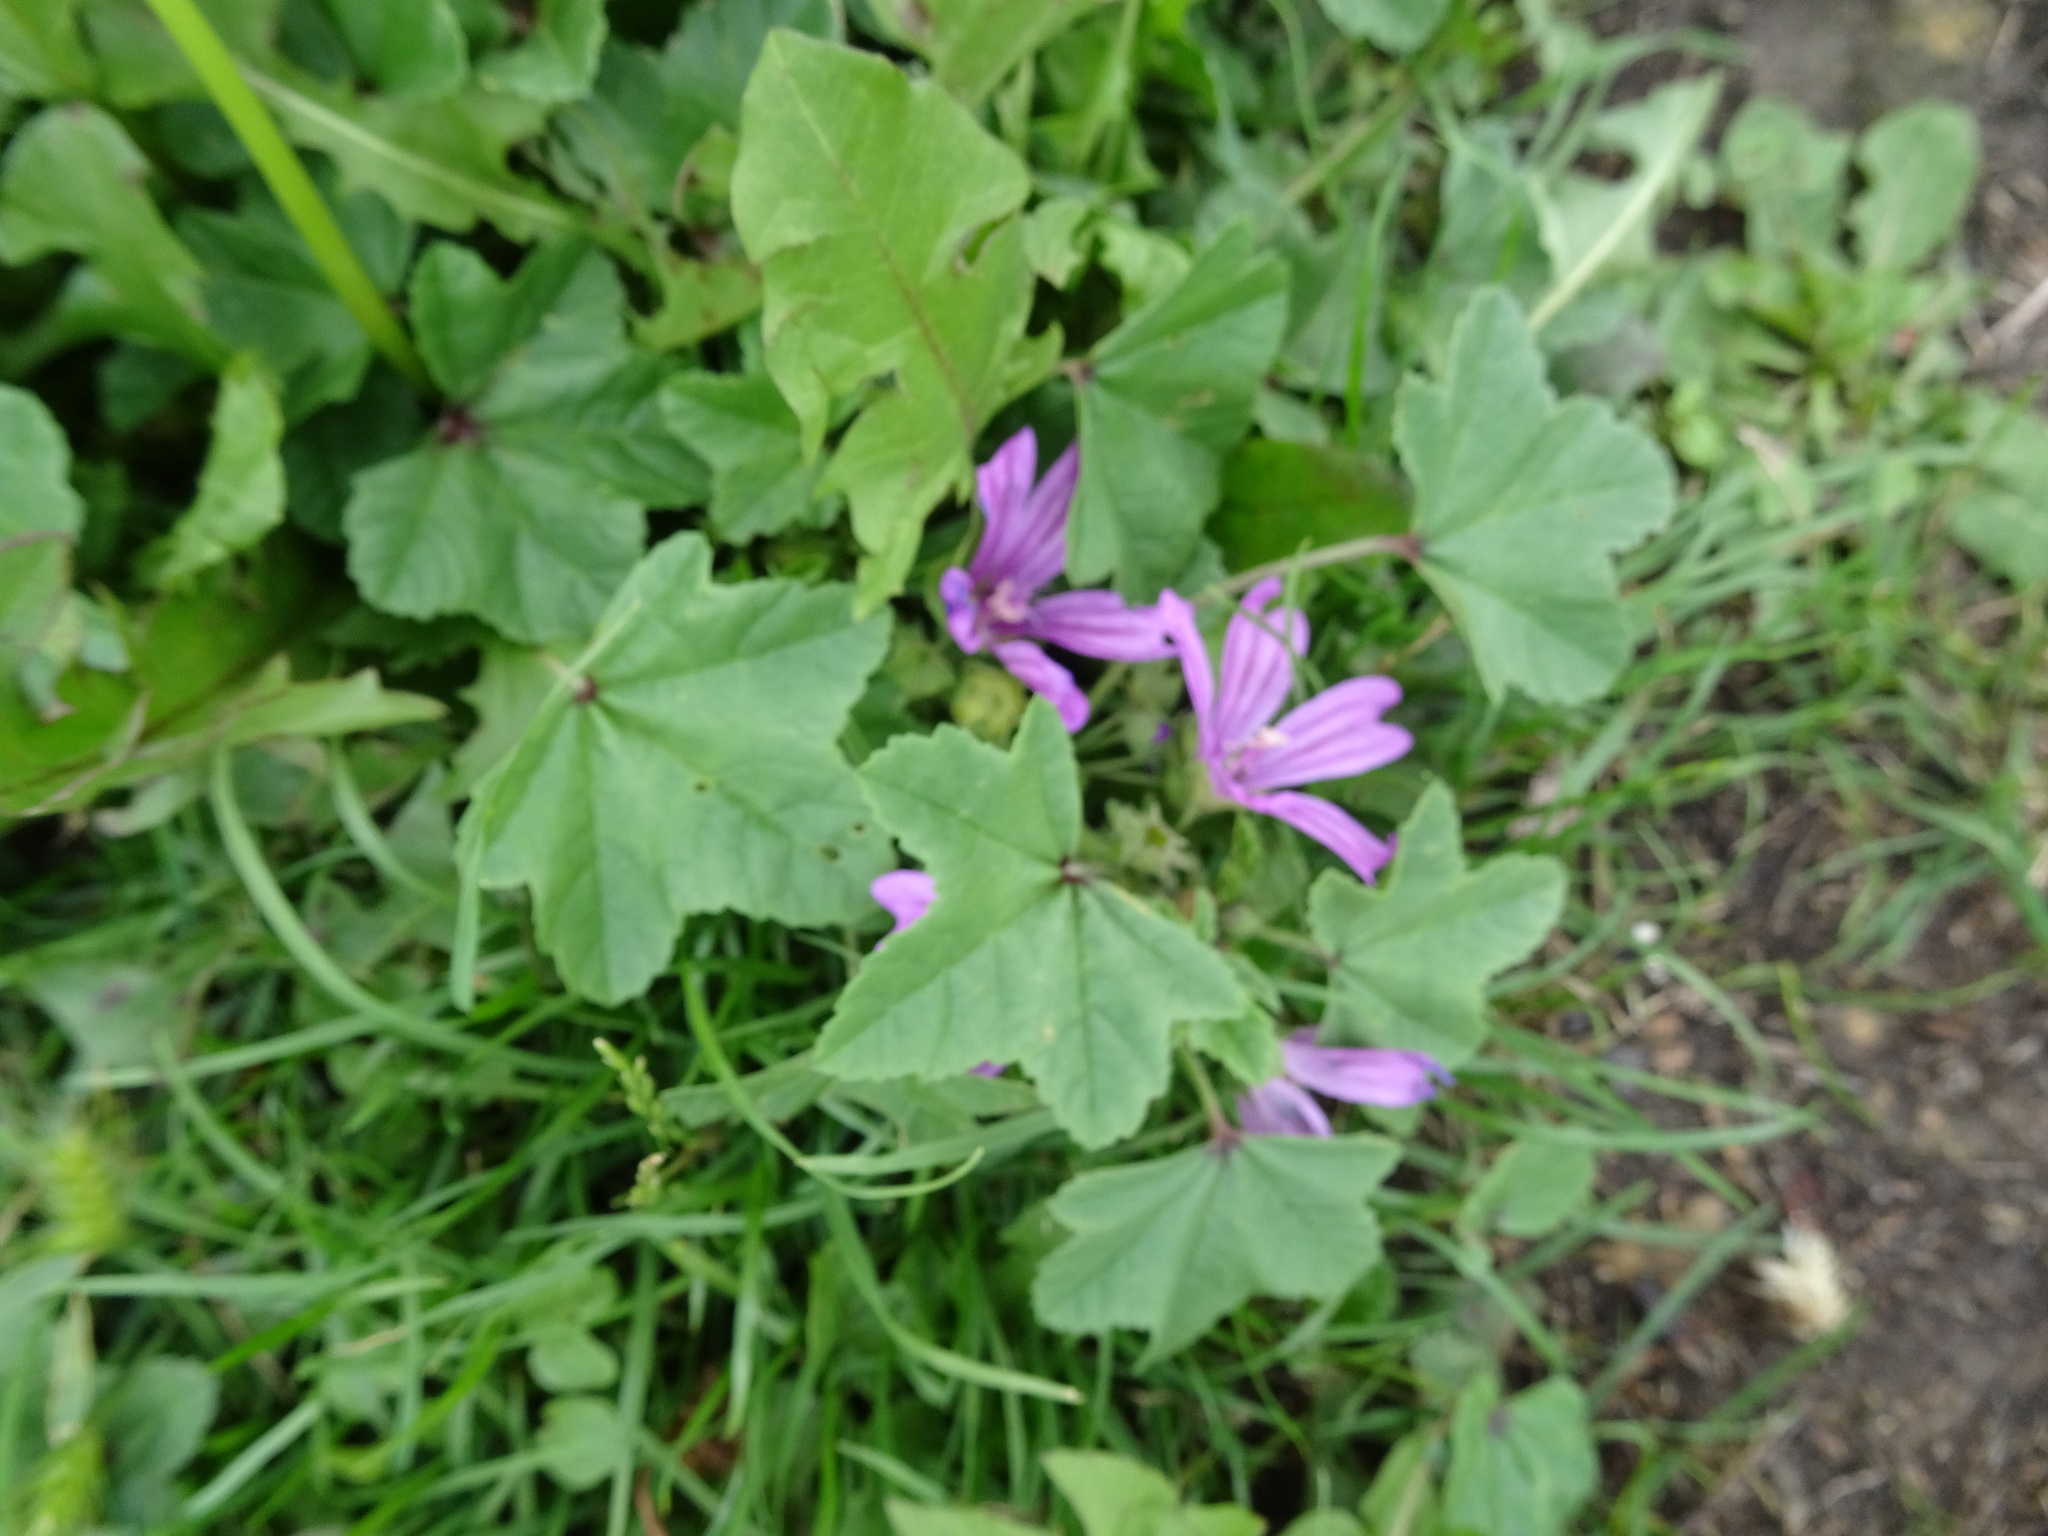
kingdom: Plantae
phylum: Tracheophyta
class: Magnoliopsida
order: Malvales
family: Malvaceae
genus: Malva
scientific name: Malva sylvestris
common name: Common mallow
